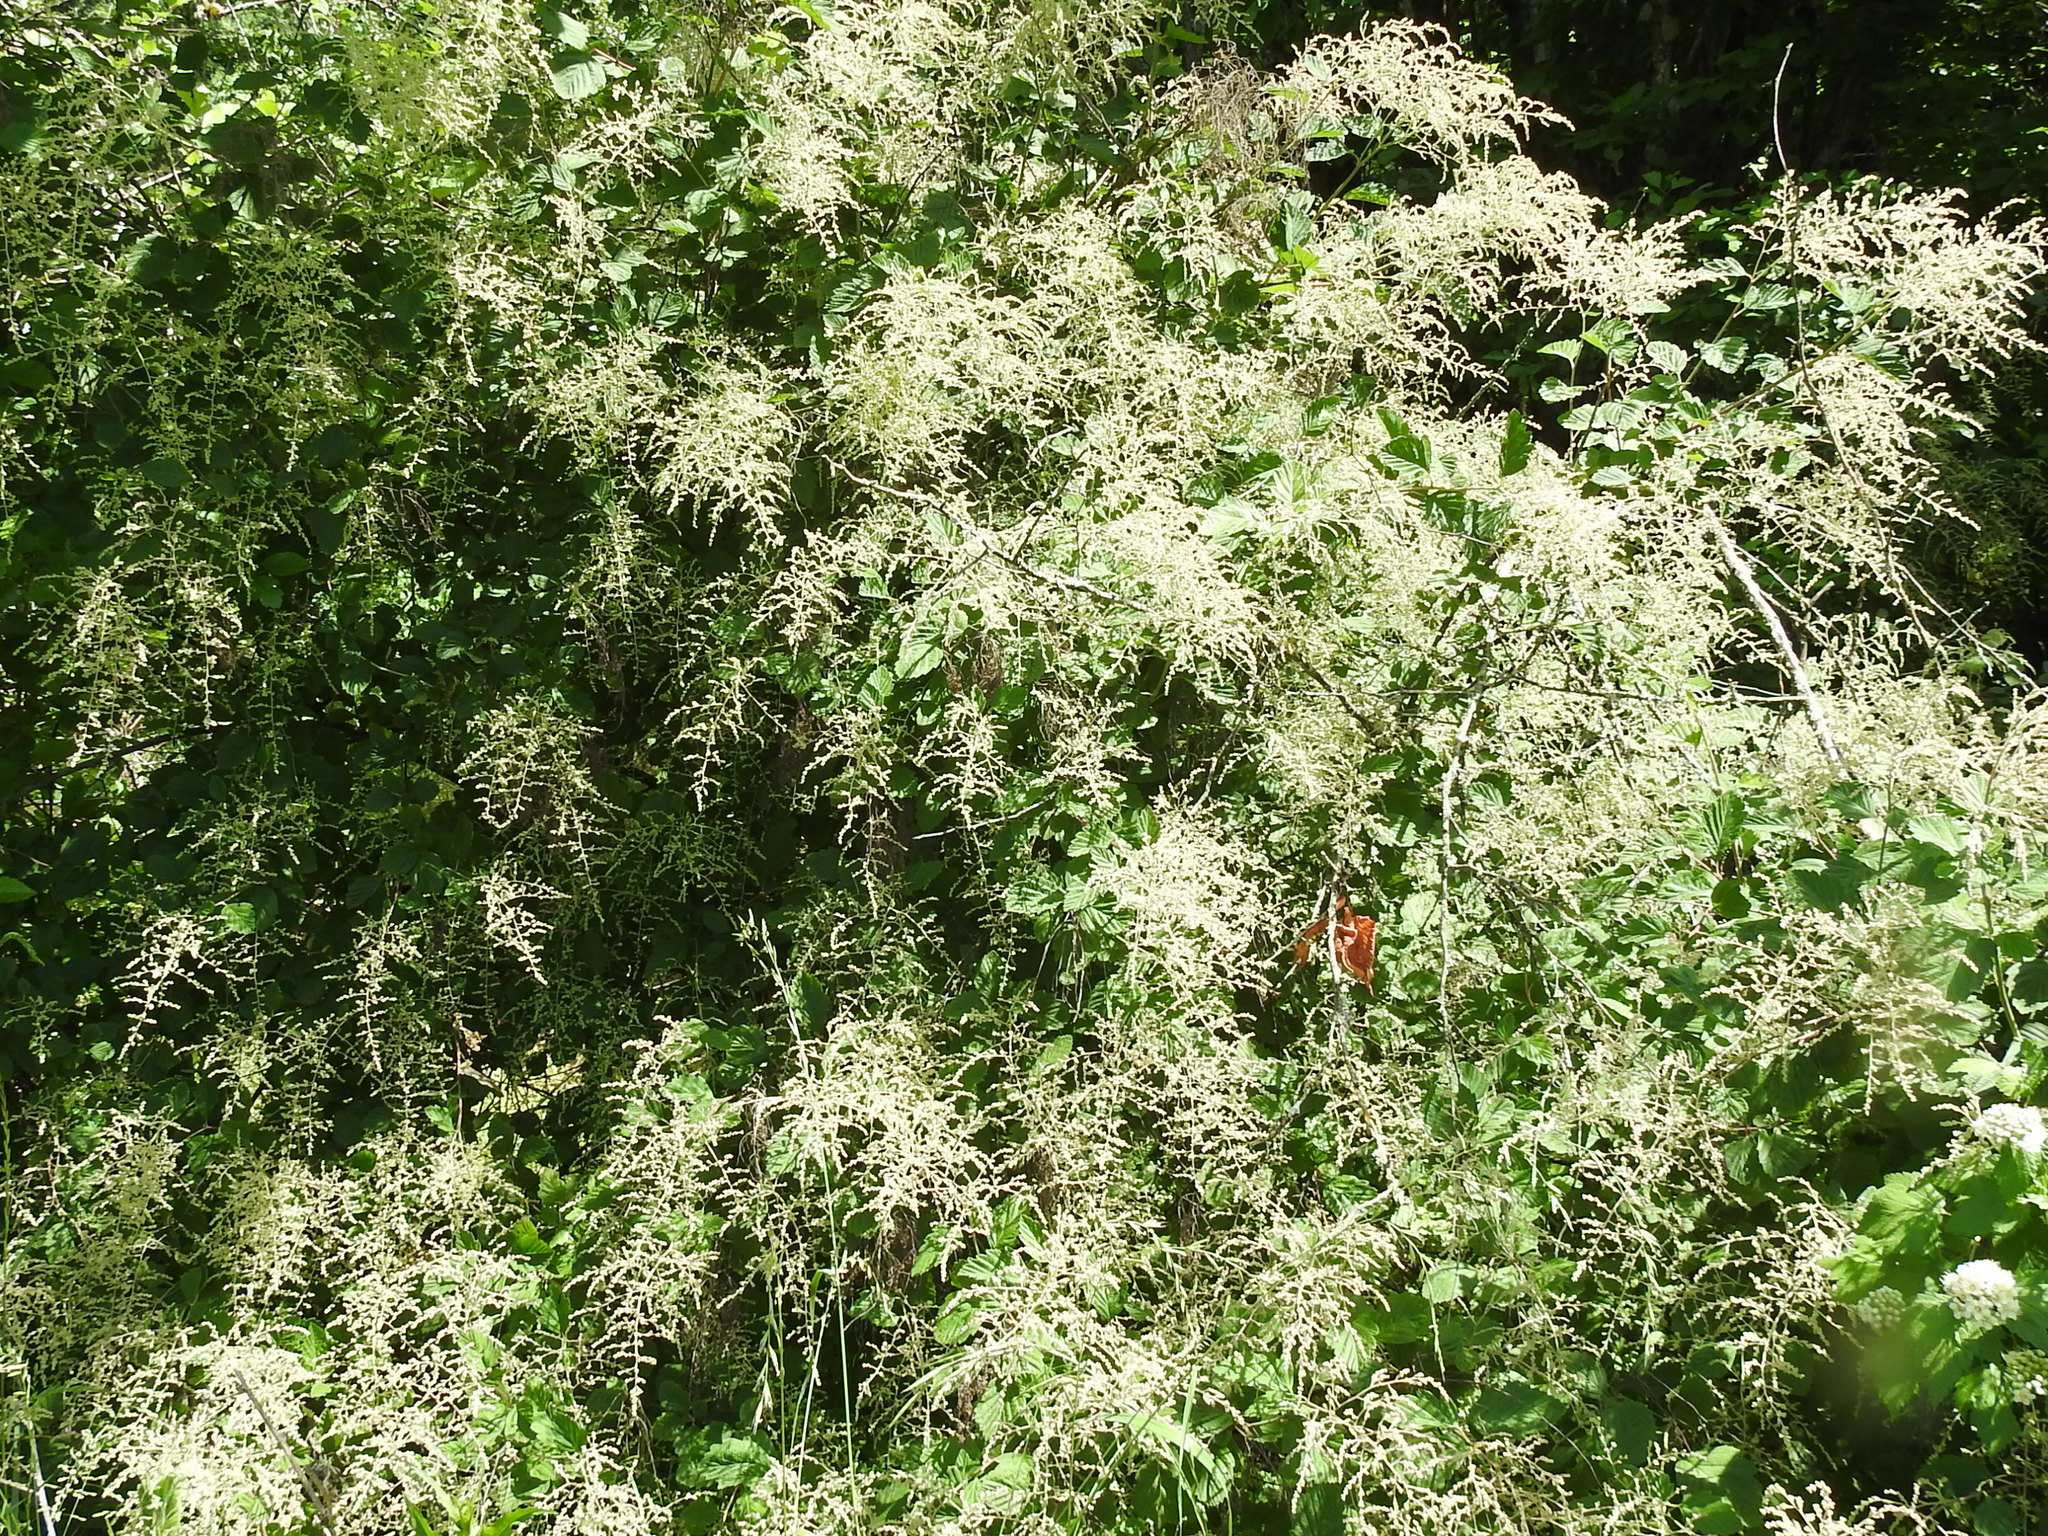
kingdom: Plantae
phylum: Tracheophyta
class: Magnoliopsida
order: Rosales
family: Rosaceae
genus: Holodiscus
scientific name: Holodiscus discolor
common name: Oceanspray
